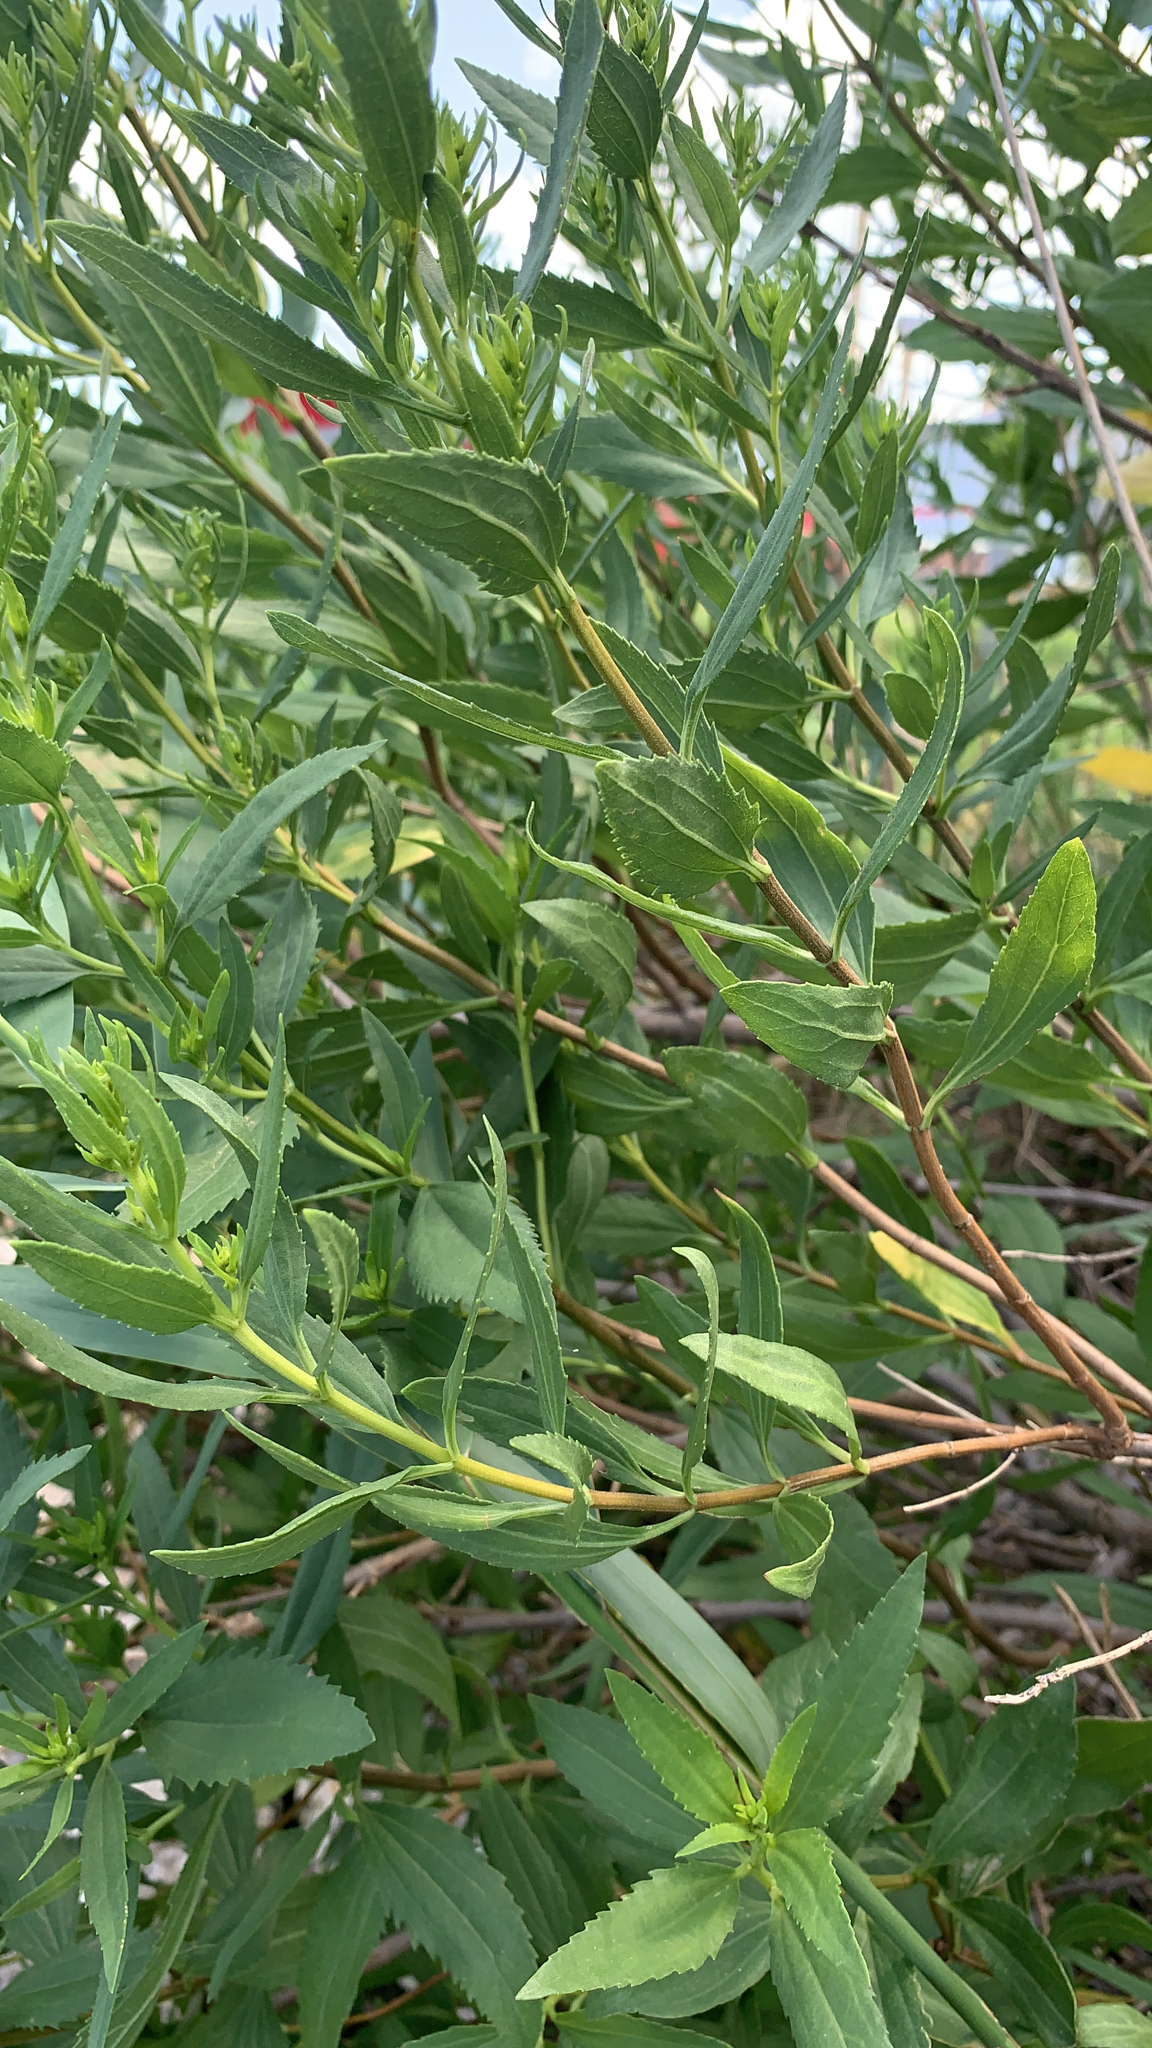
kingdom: Plantae
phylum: Tracheophyta
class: Magnoliopsida
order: Asterales
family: Asteraceae
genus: Iva
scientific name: Iva frutescens
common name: Big-leaved marsh-elder
